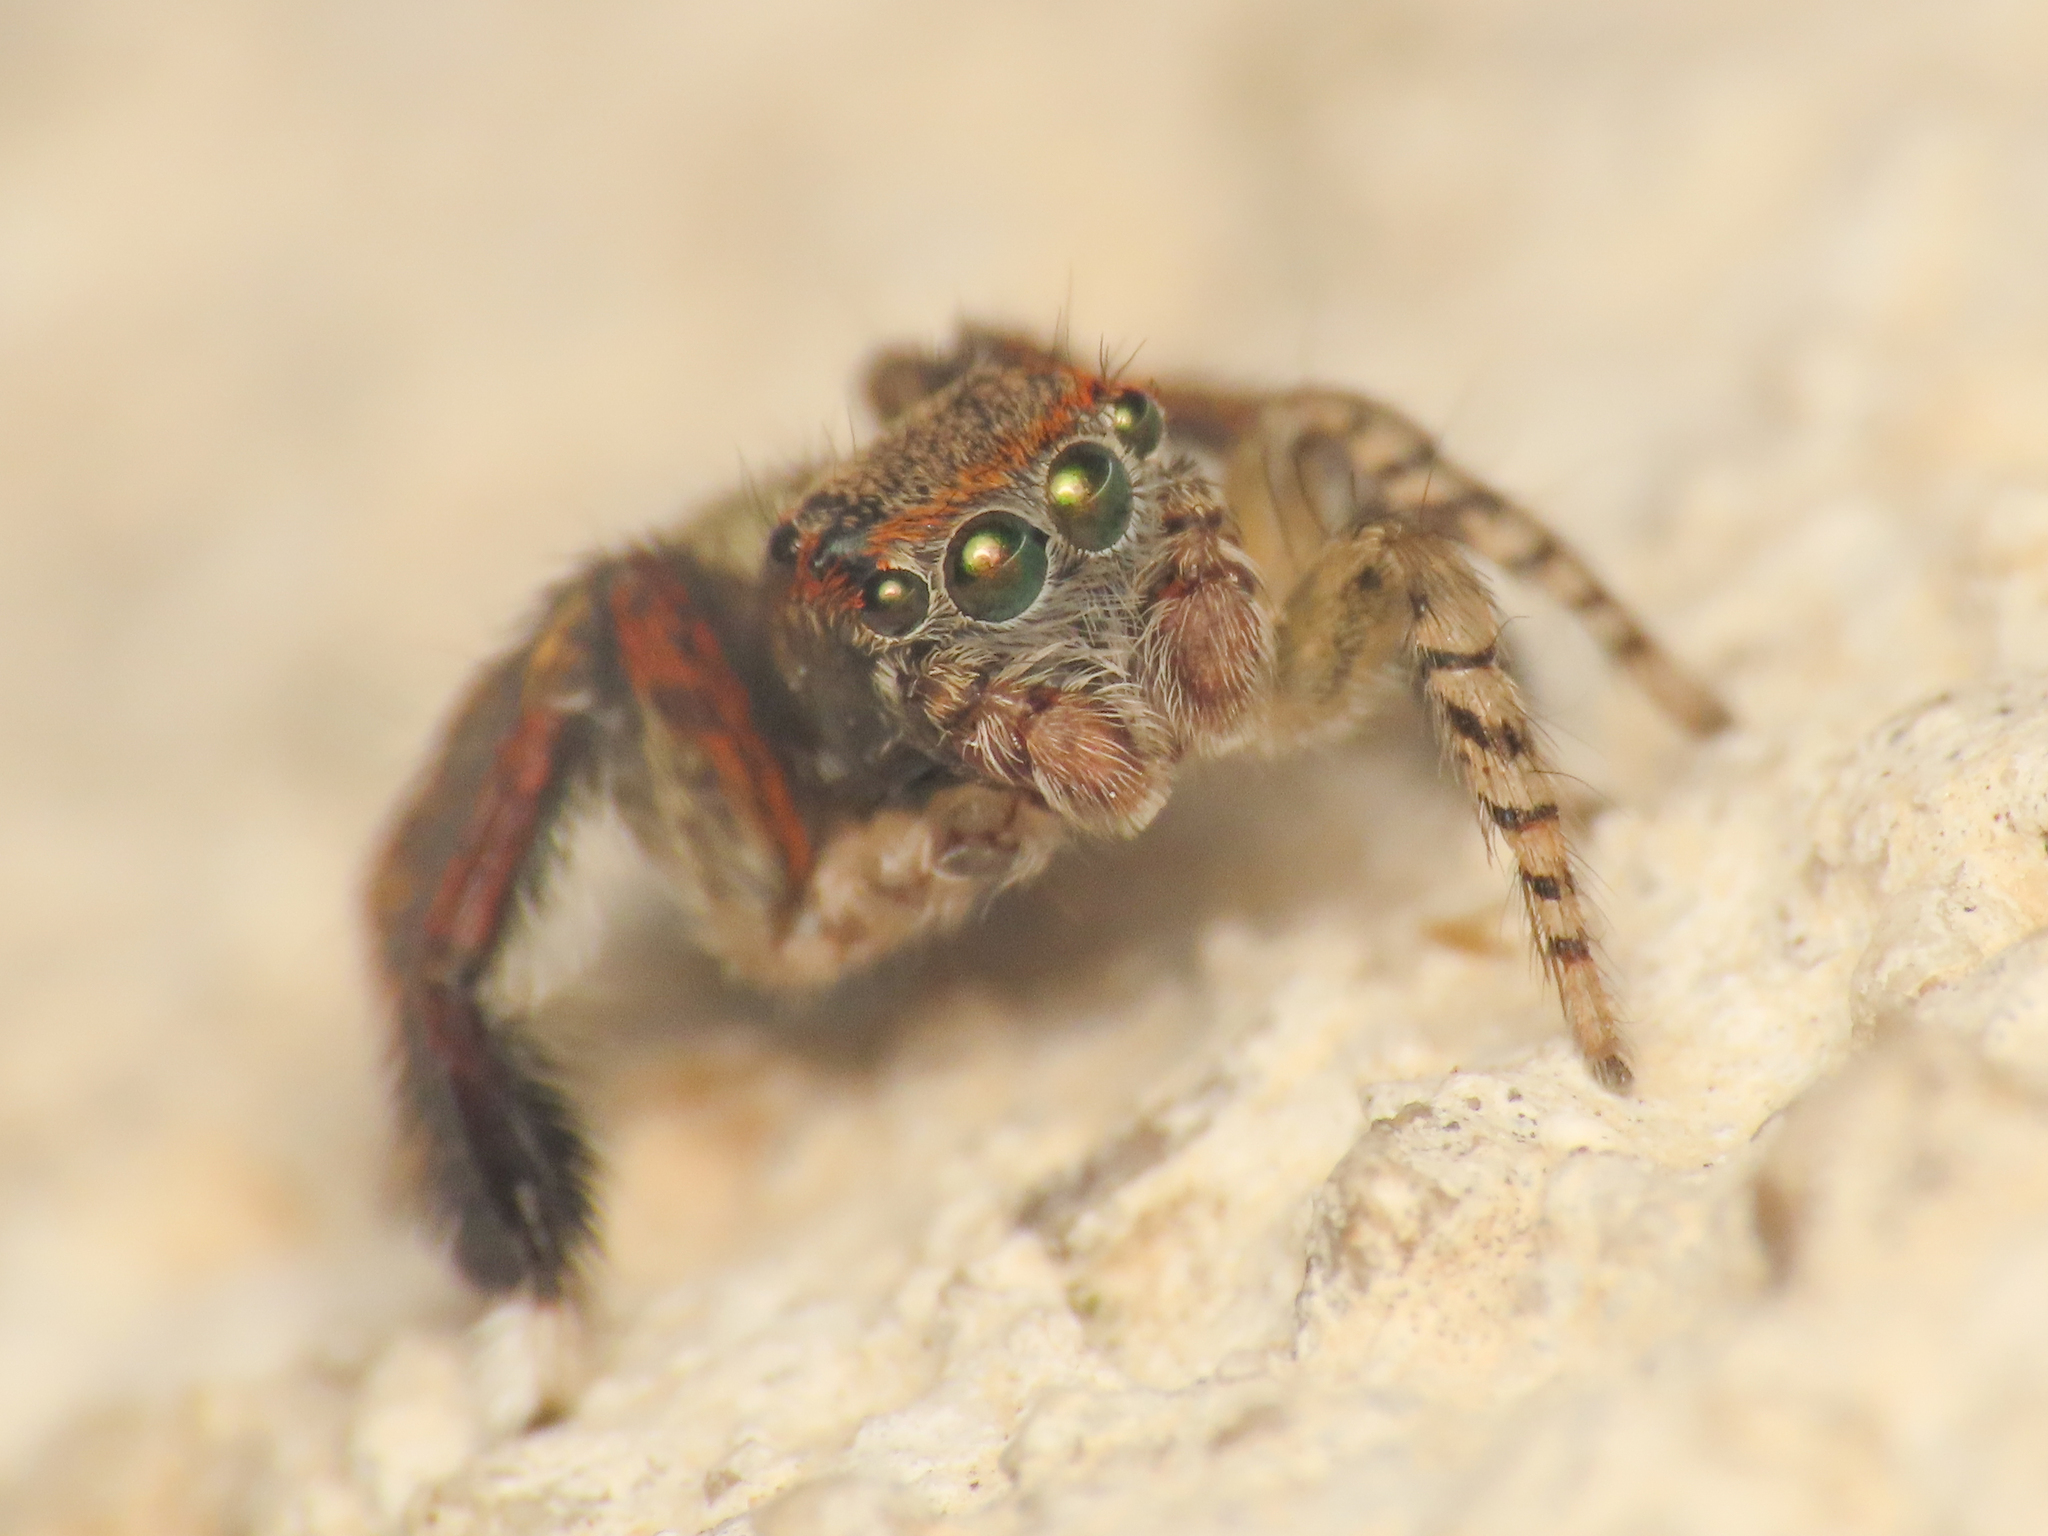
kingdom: Animalia
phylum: Arthropoda
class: Arachnida
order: Araneae
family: Salticidae
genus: Saitis
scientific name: Saitis barbipes
